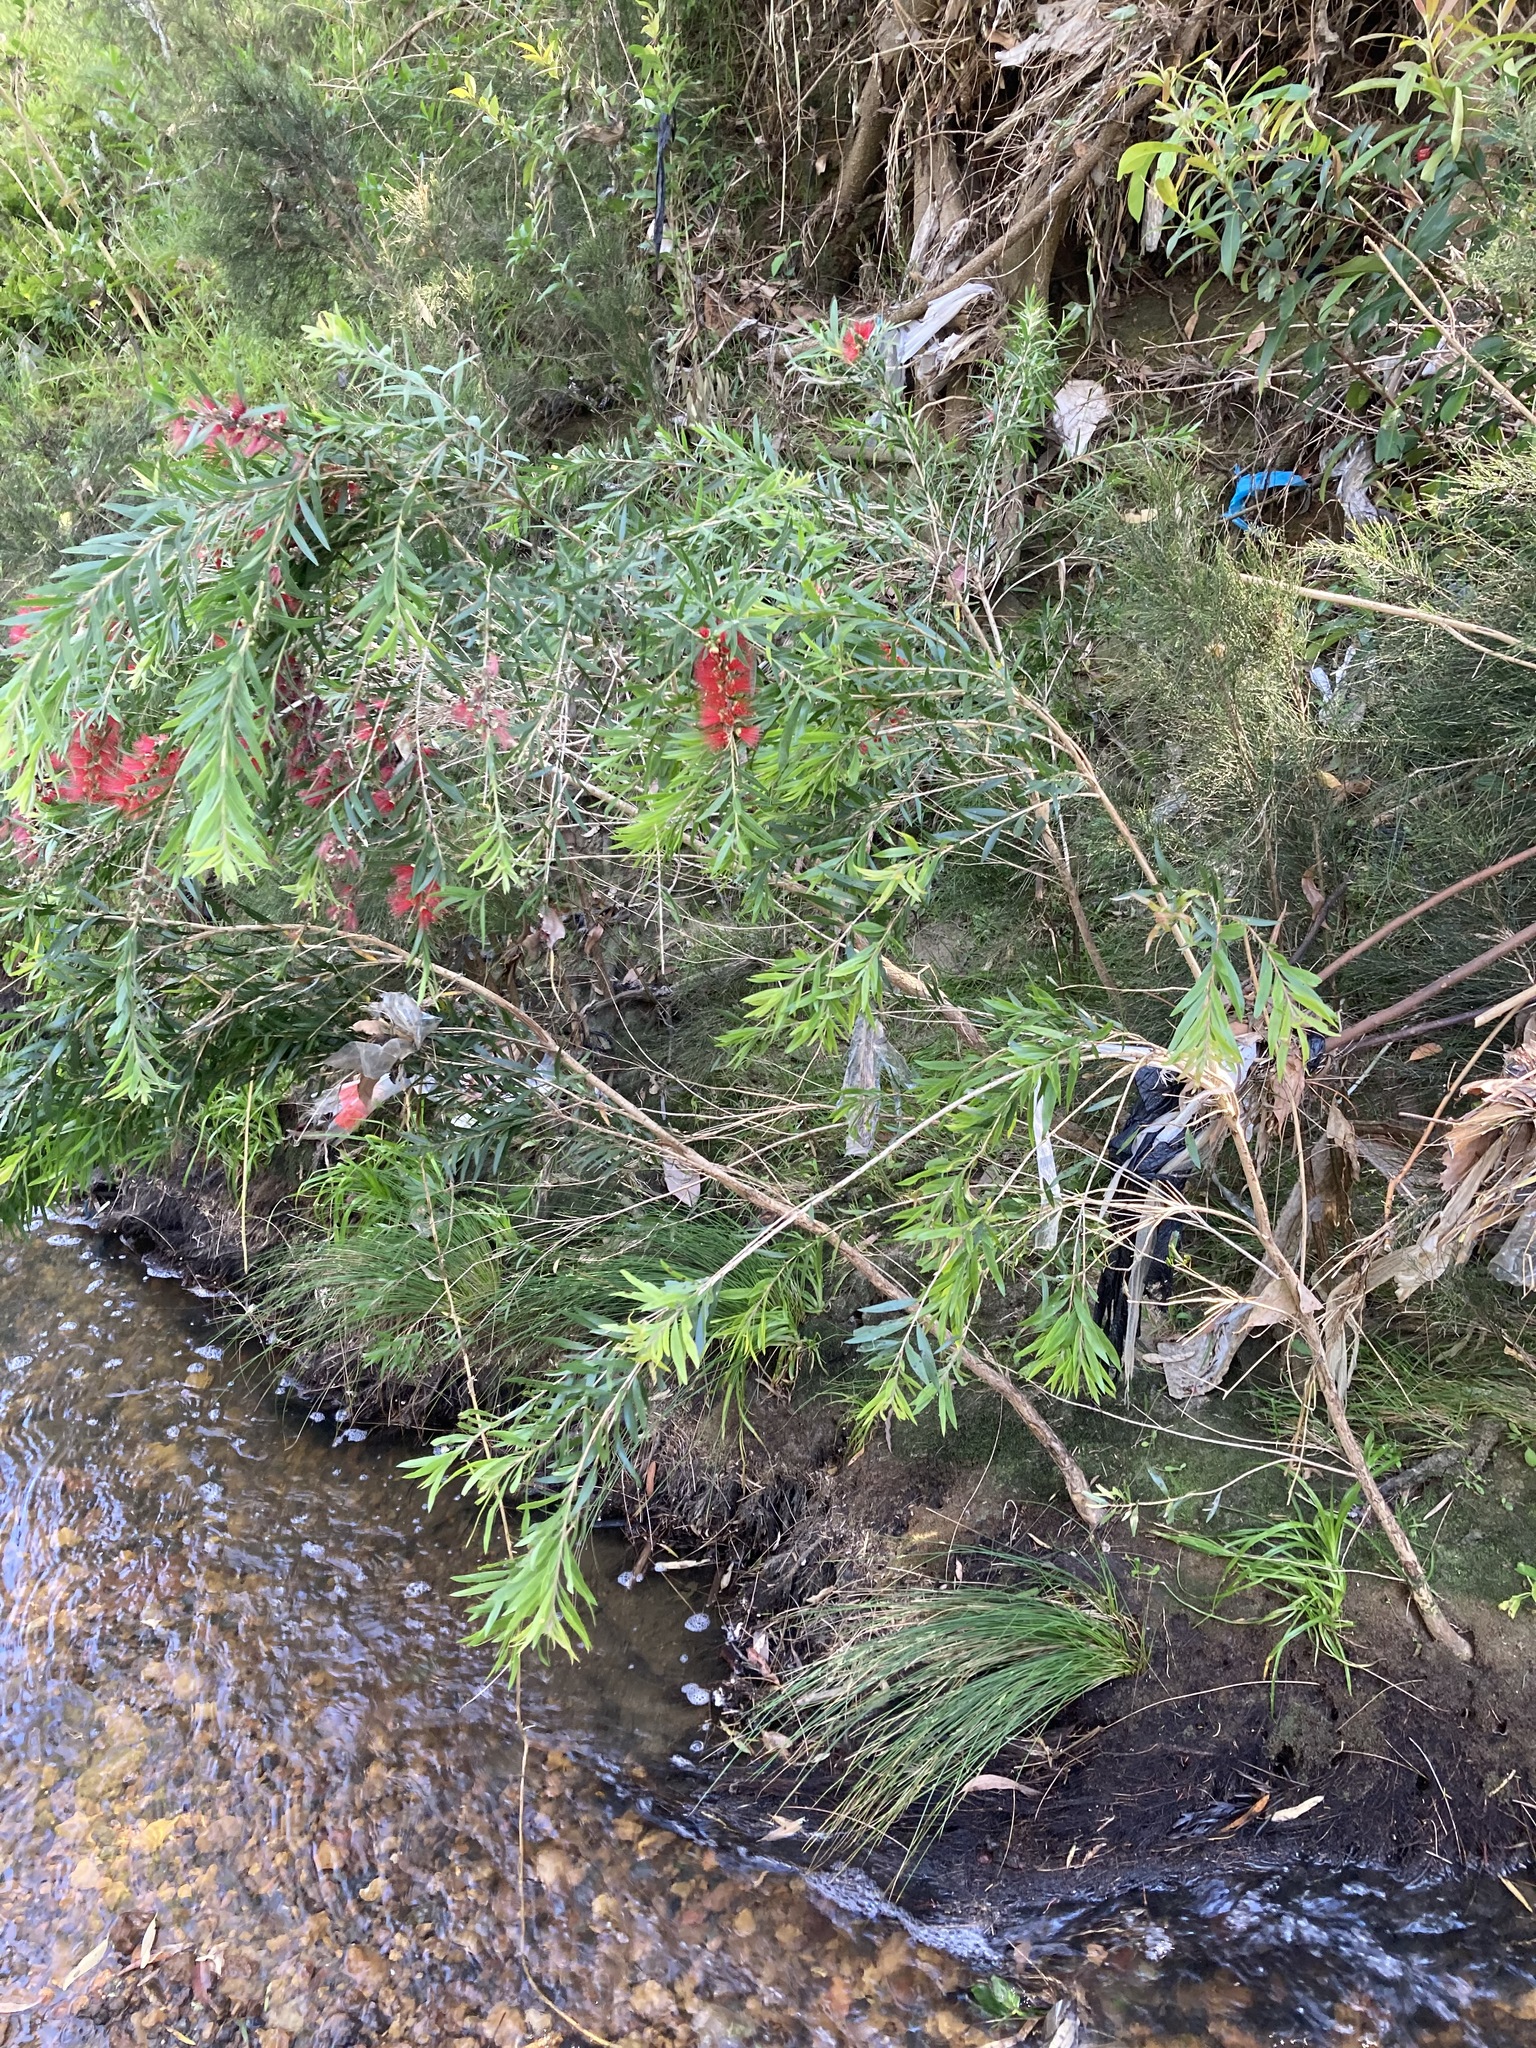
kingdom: Plantae
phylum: Tracheophyta
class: Magnoliopsida
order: Myrtales
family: Myrtaceae
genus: Callistemon
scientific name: Callistemon viminalis
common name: Drooping bottlebrush
